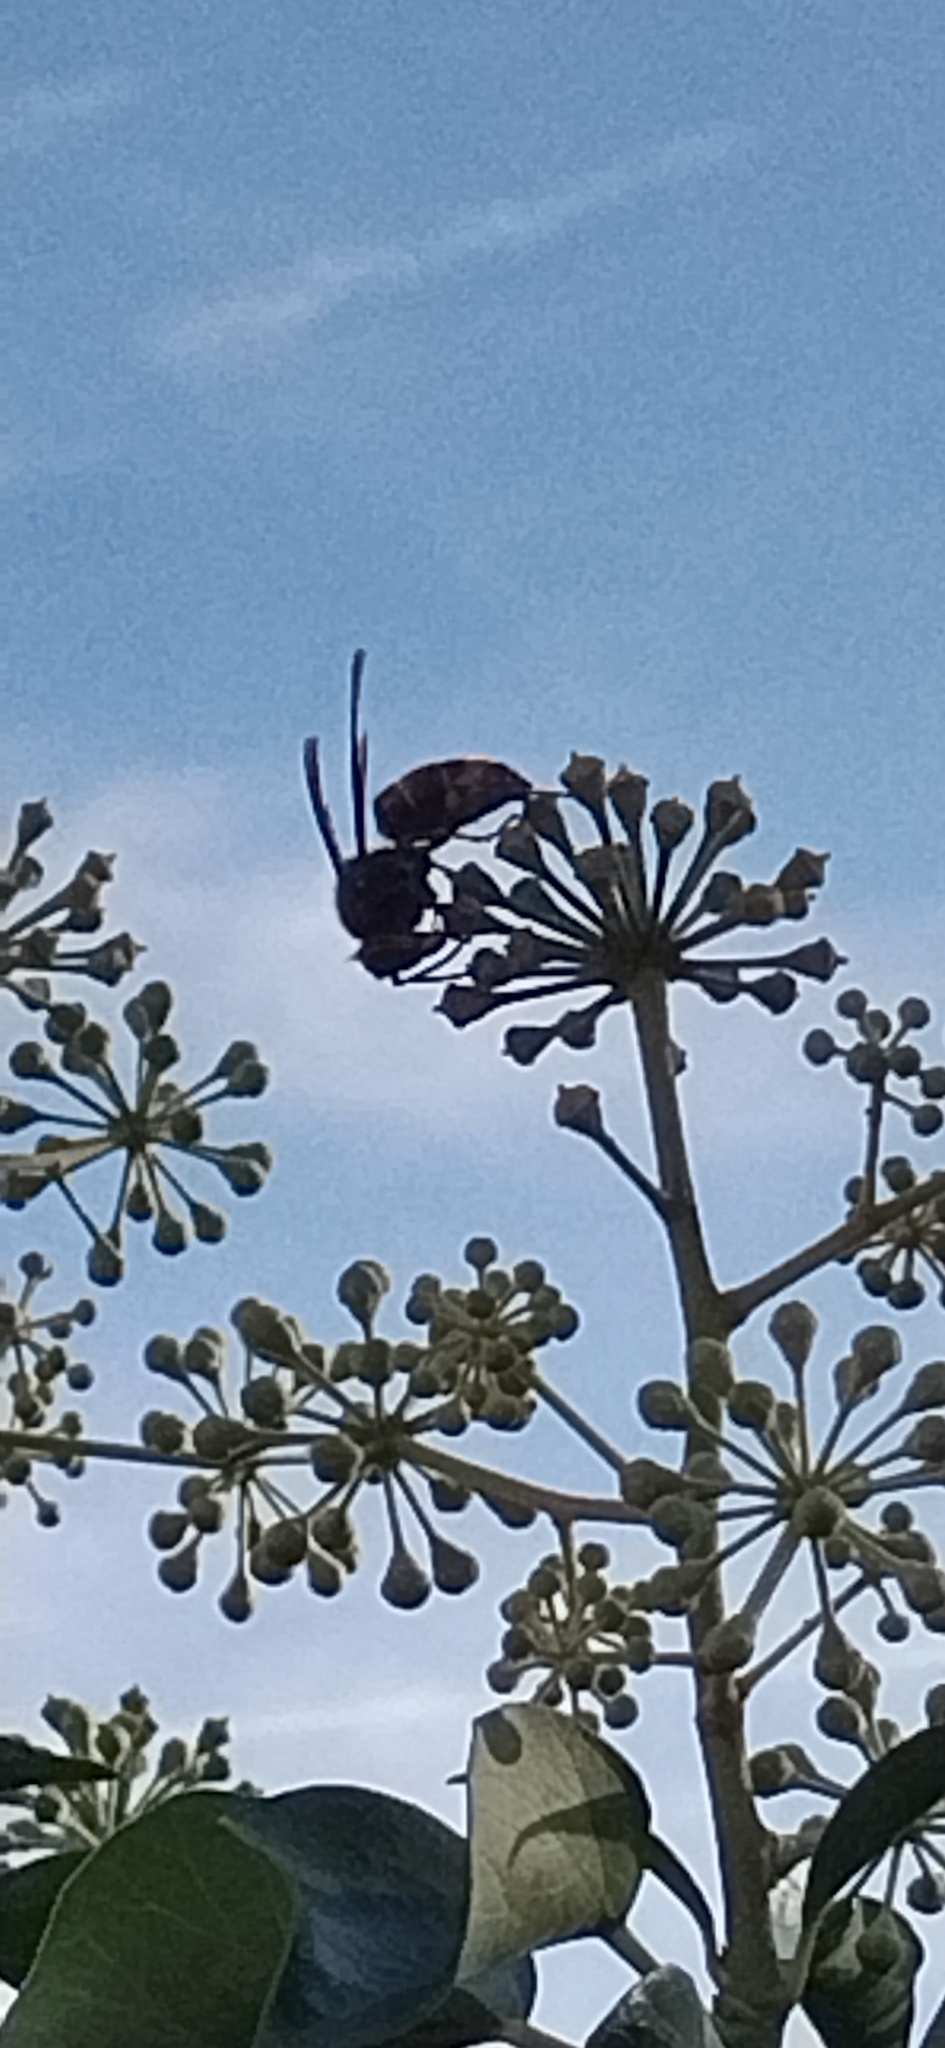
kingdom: Animalia
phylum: Arthropoda
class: Insecta
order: Hymenoptera
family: Vespidae
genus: Vespa
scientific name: Vespa velutina
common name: Asian hornet
